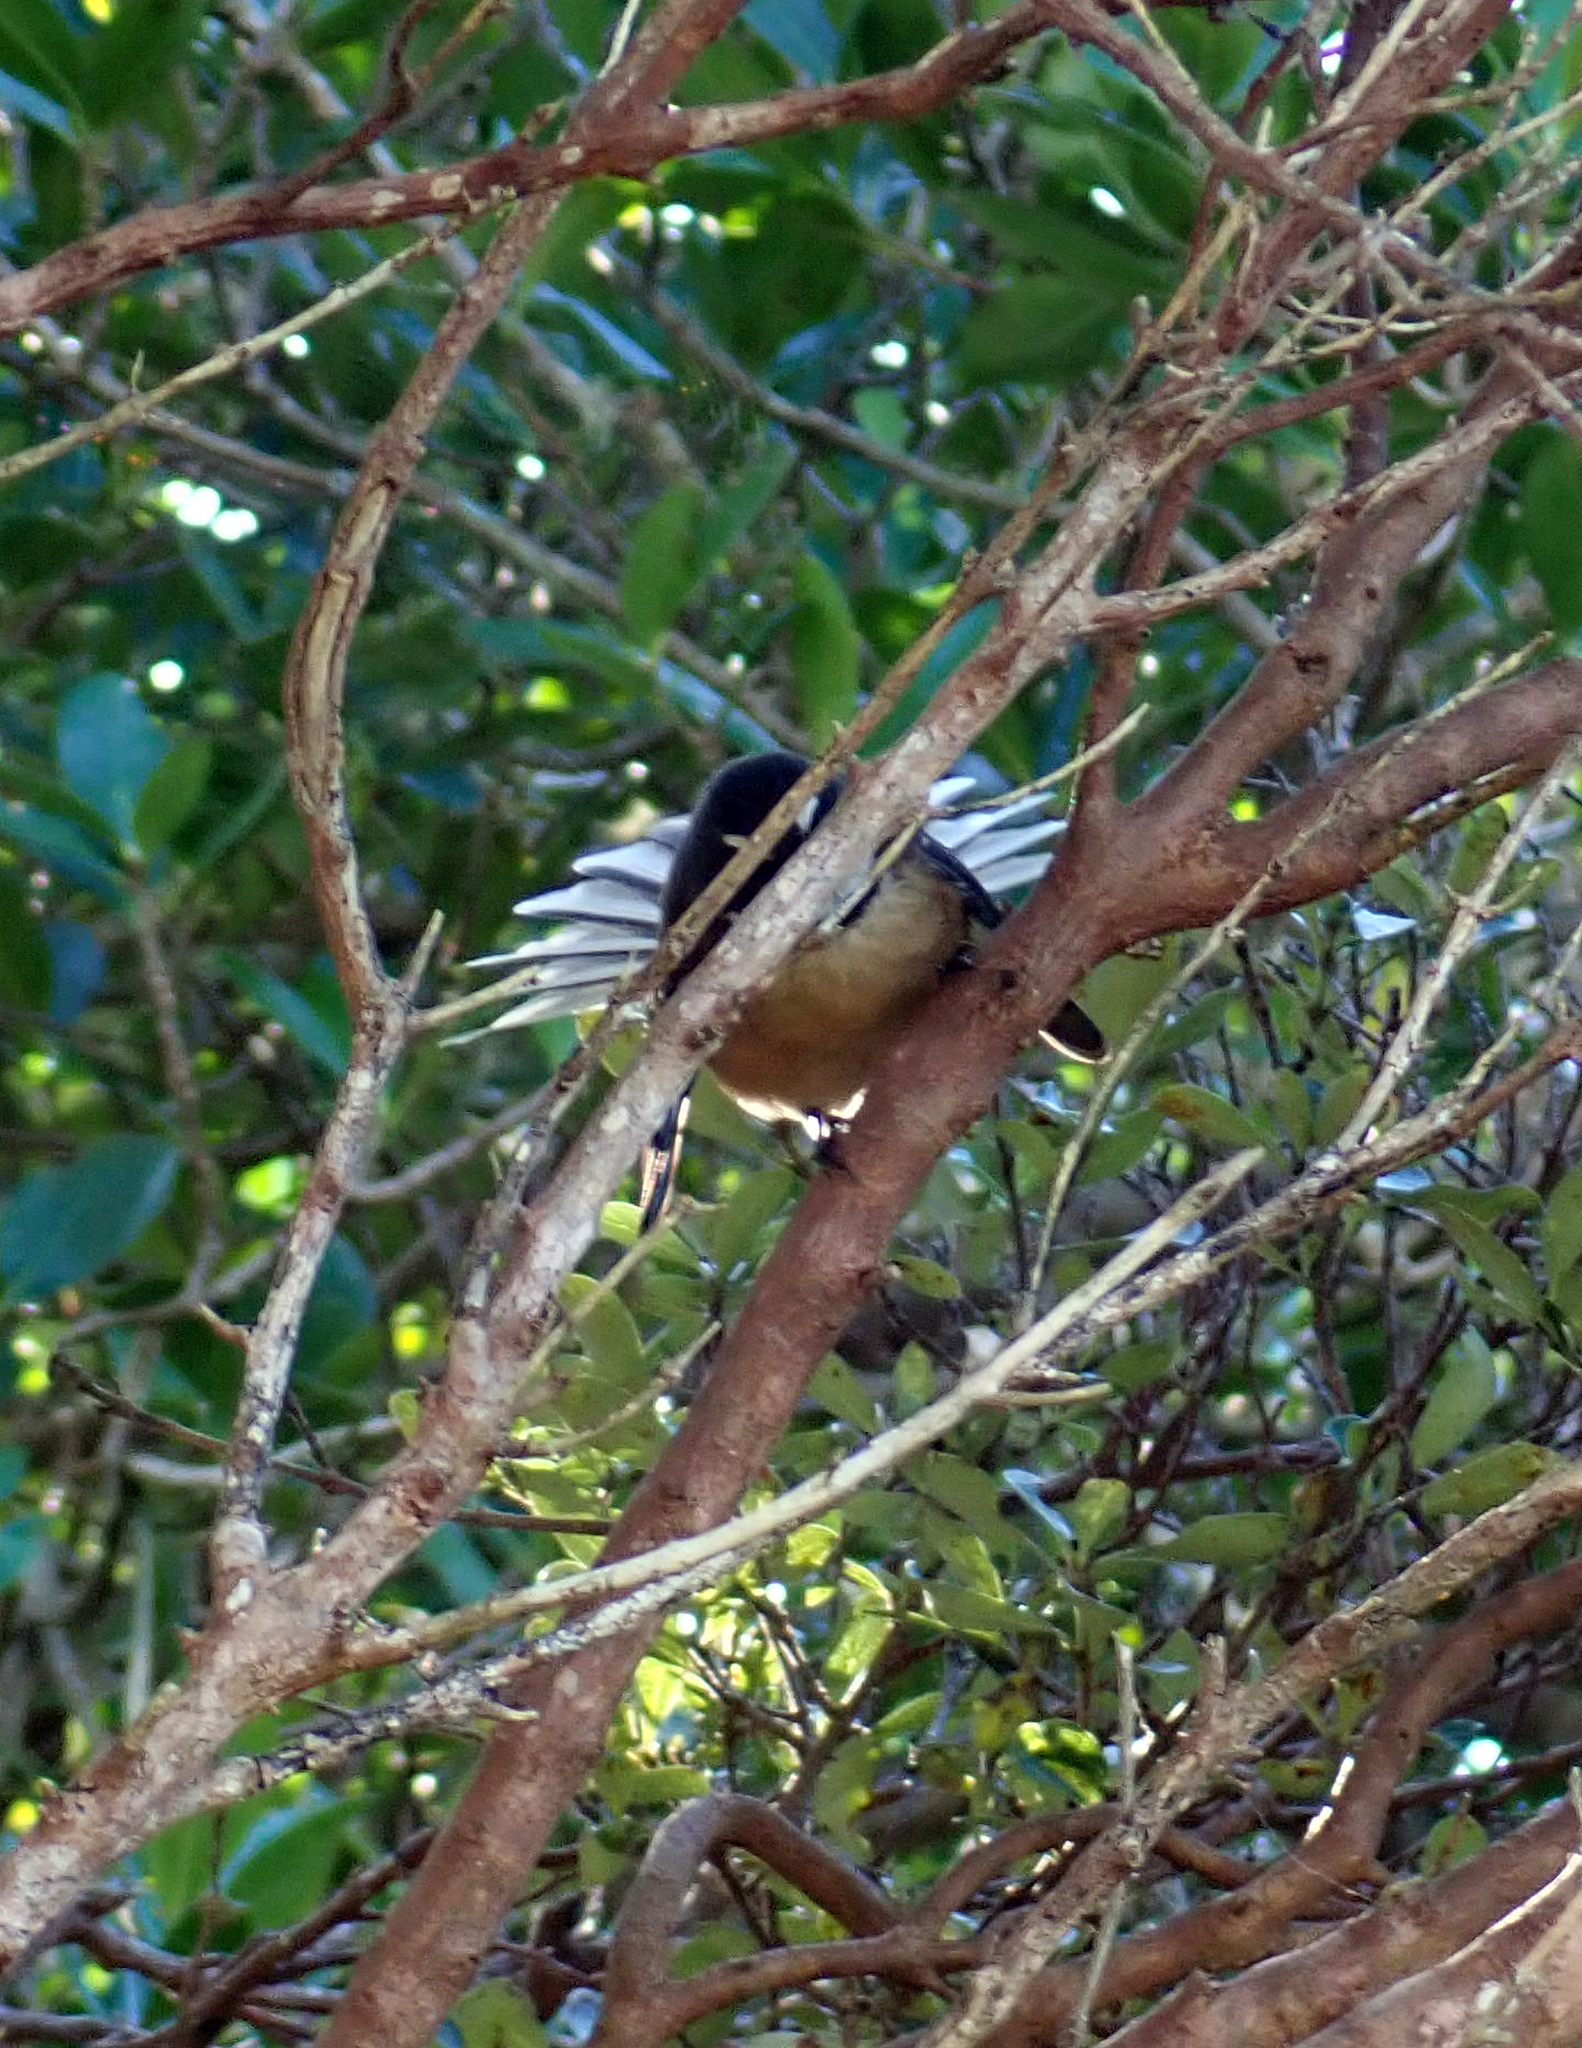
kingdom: Animalia
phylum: Chordata
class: Aves
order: Passeriformes
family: Rhipiduridae
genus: Rhipidura
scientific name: Rhipidura fuliginosa
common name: New zealand fantail
